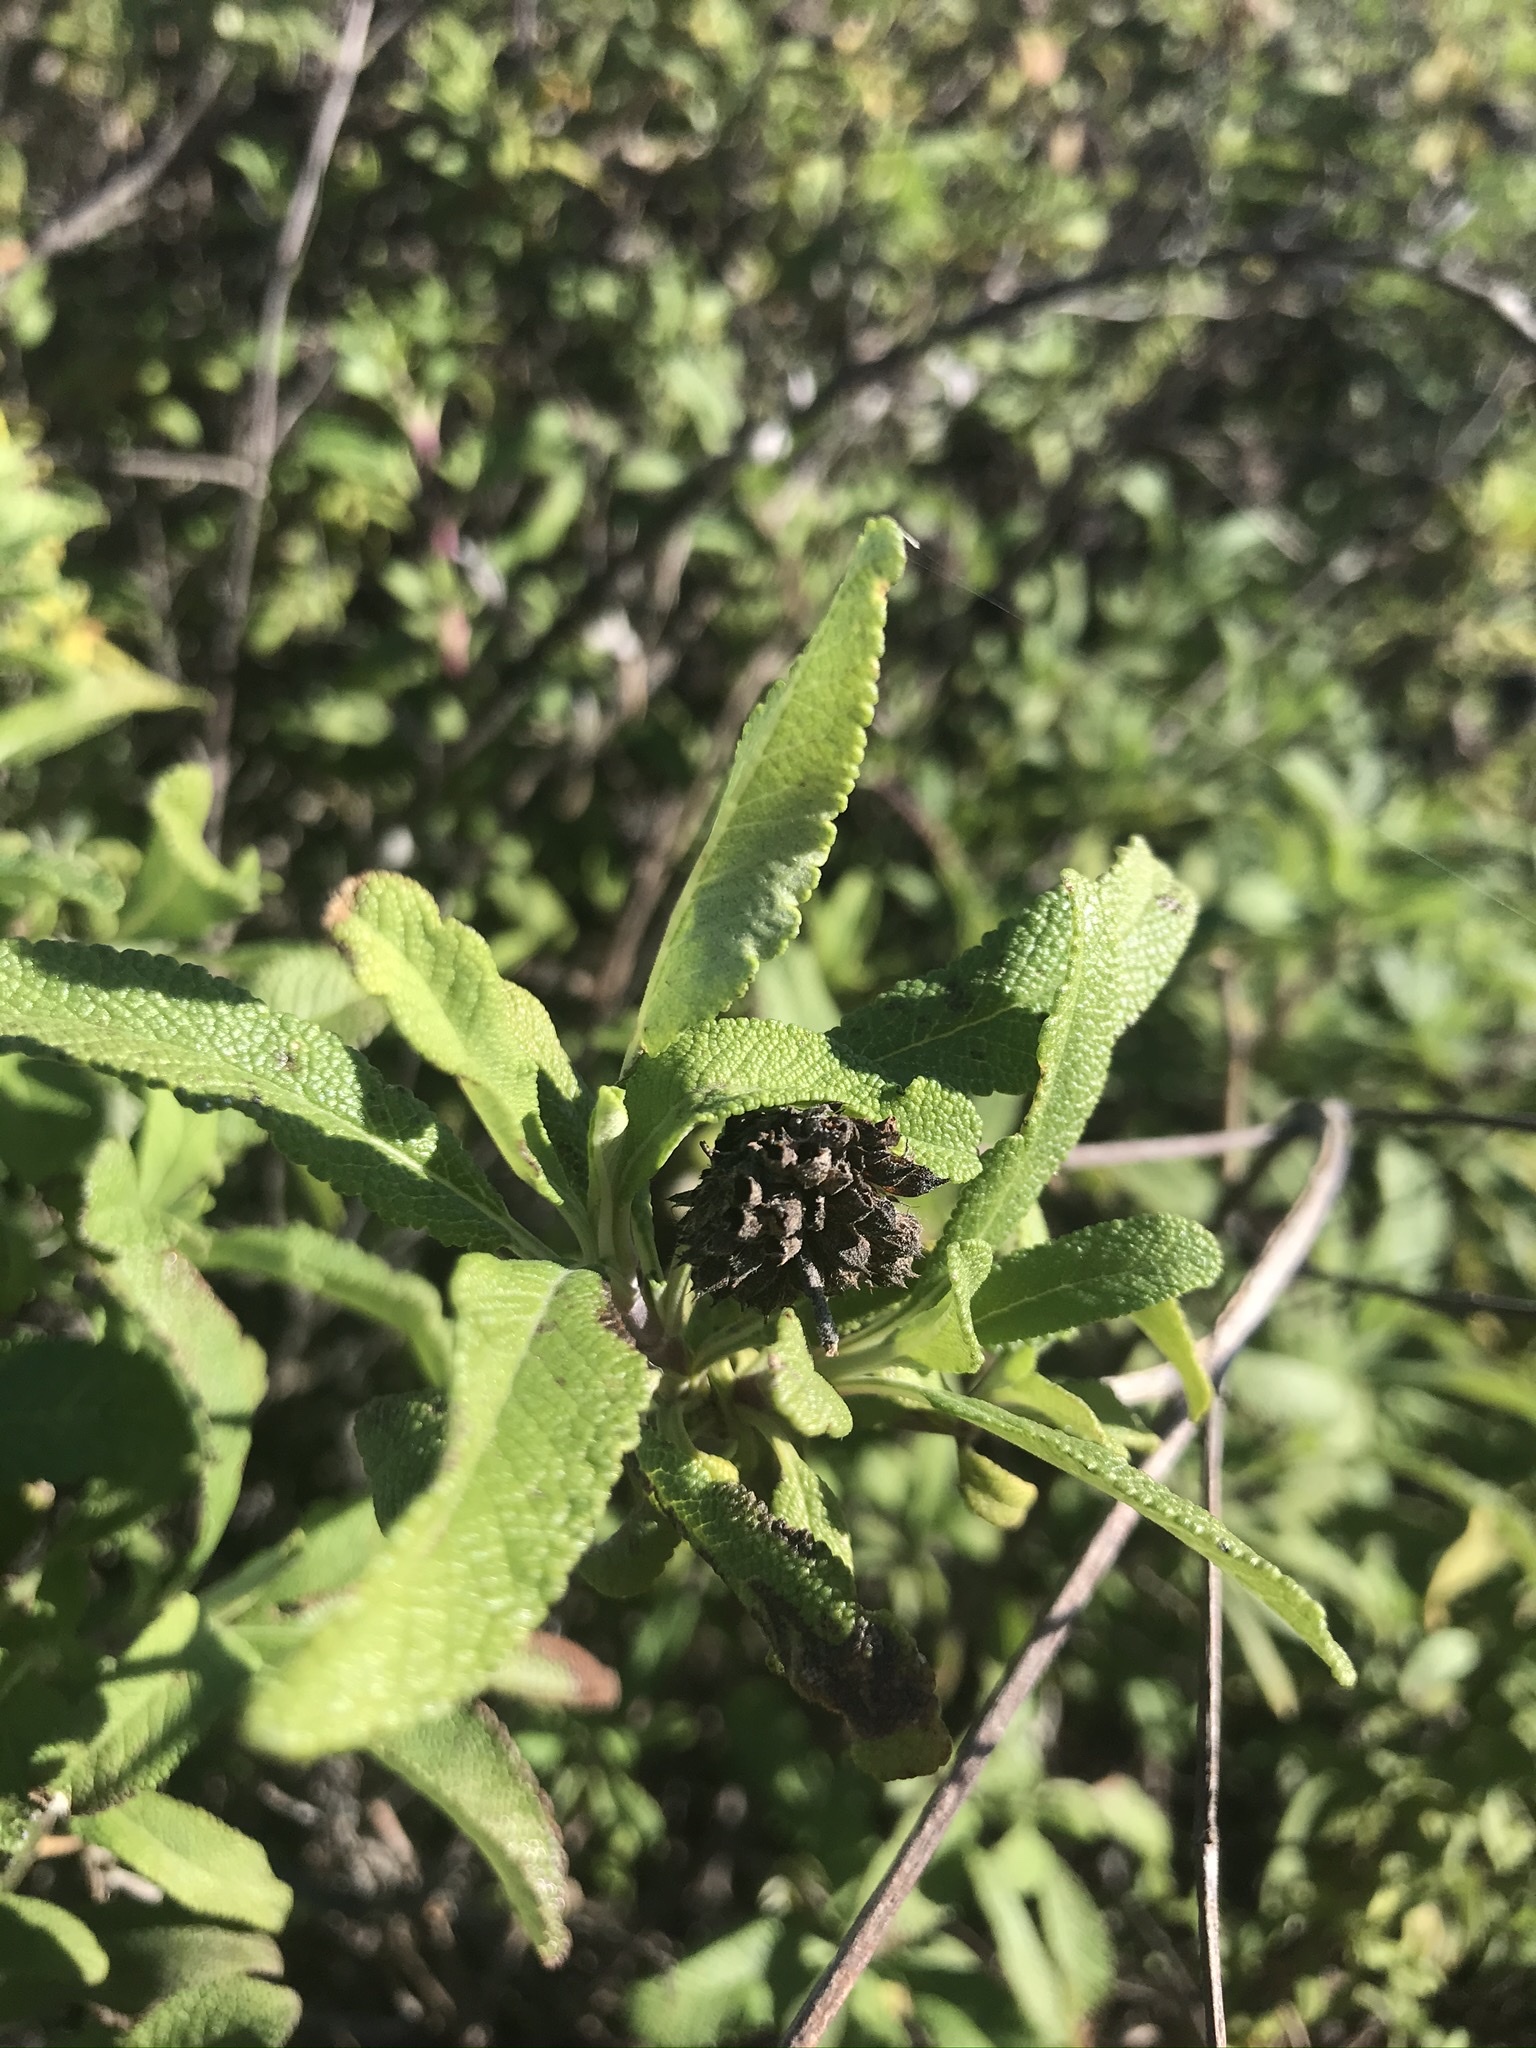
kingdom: Plantae
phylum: Tracheophyta
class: Magnoliopsida
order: Lamiales
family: Lamiaceae
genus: Salvia
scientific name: Salvia mellifera
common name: Black sage
